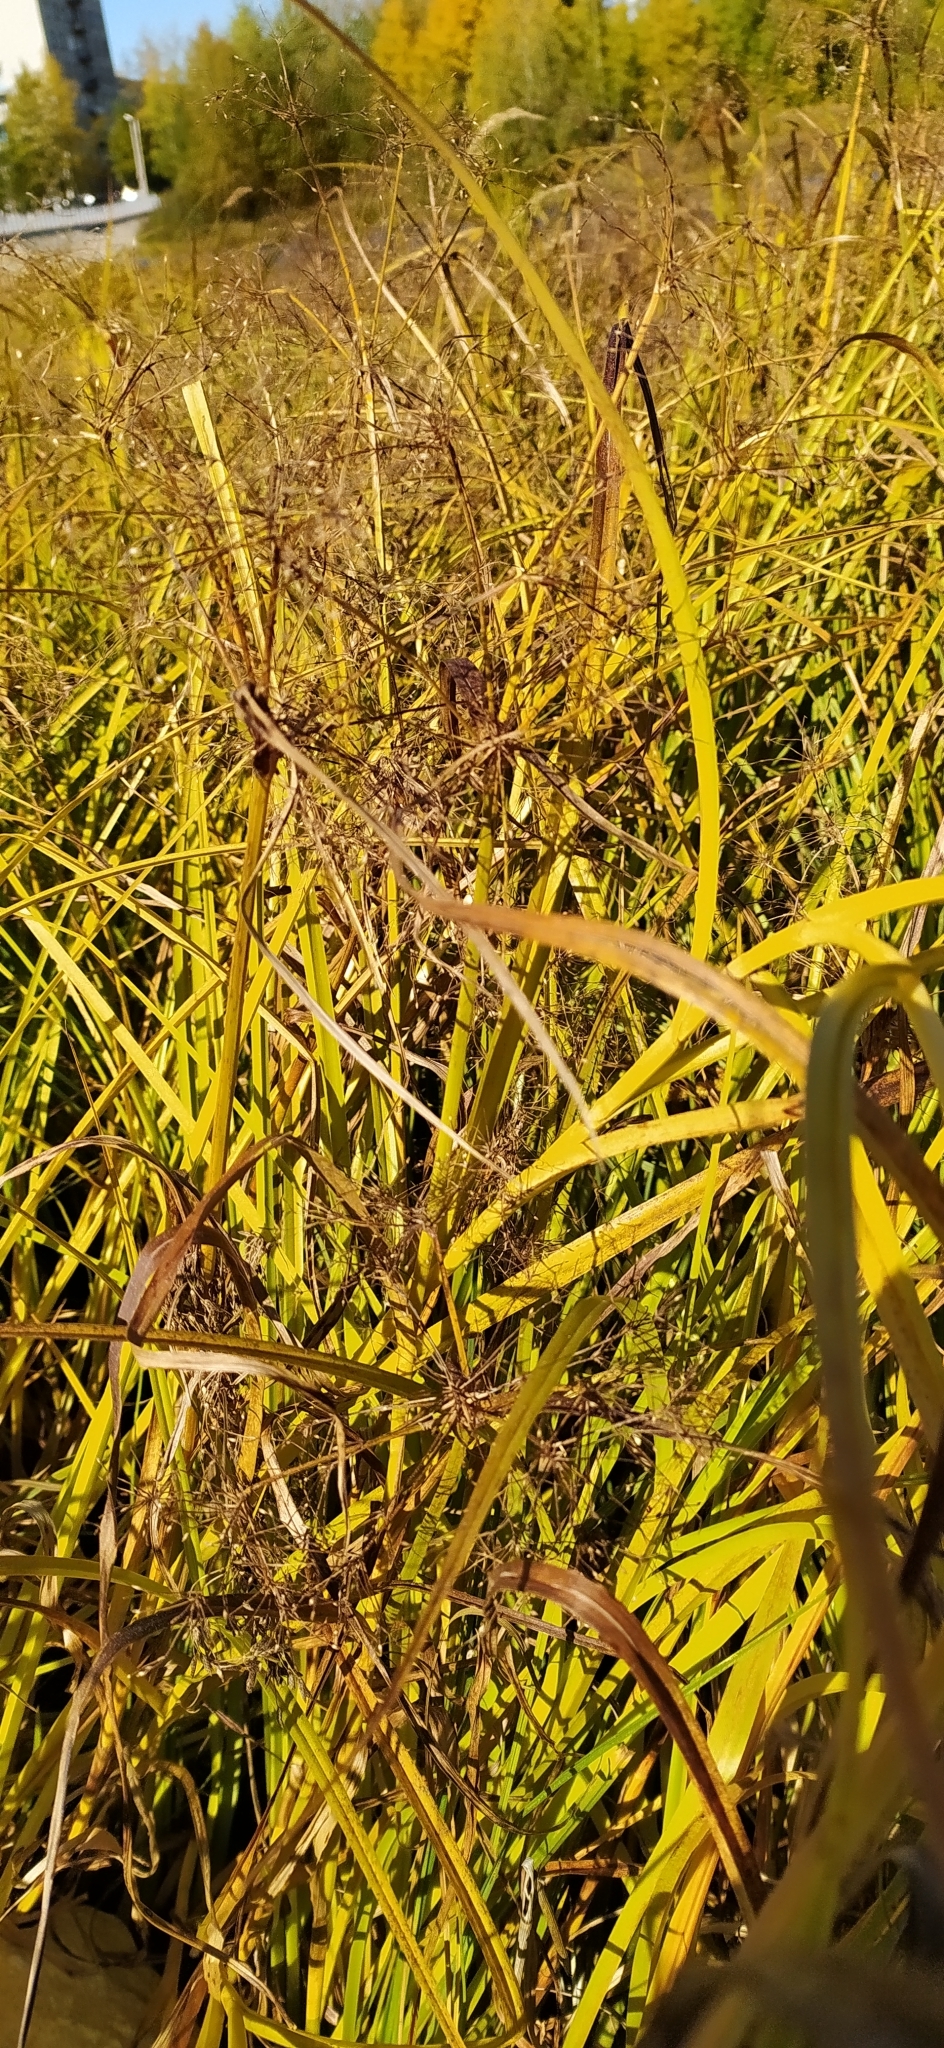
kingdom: Plantae
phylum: Tracheophyta
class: Liliopsida
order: Poales
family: Cyperaceae
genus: Scirpus
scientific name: Scirpus radicans
